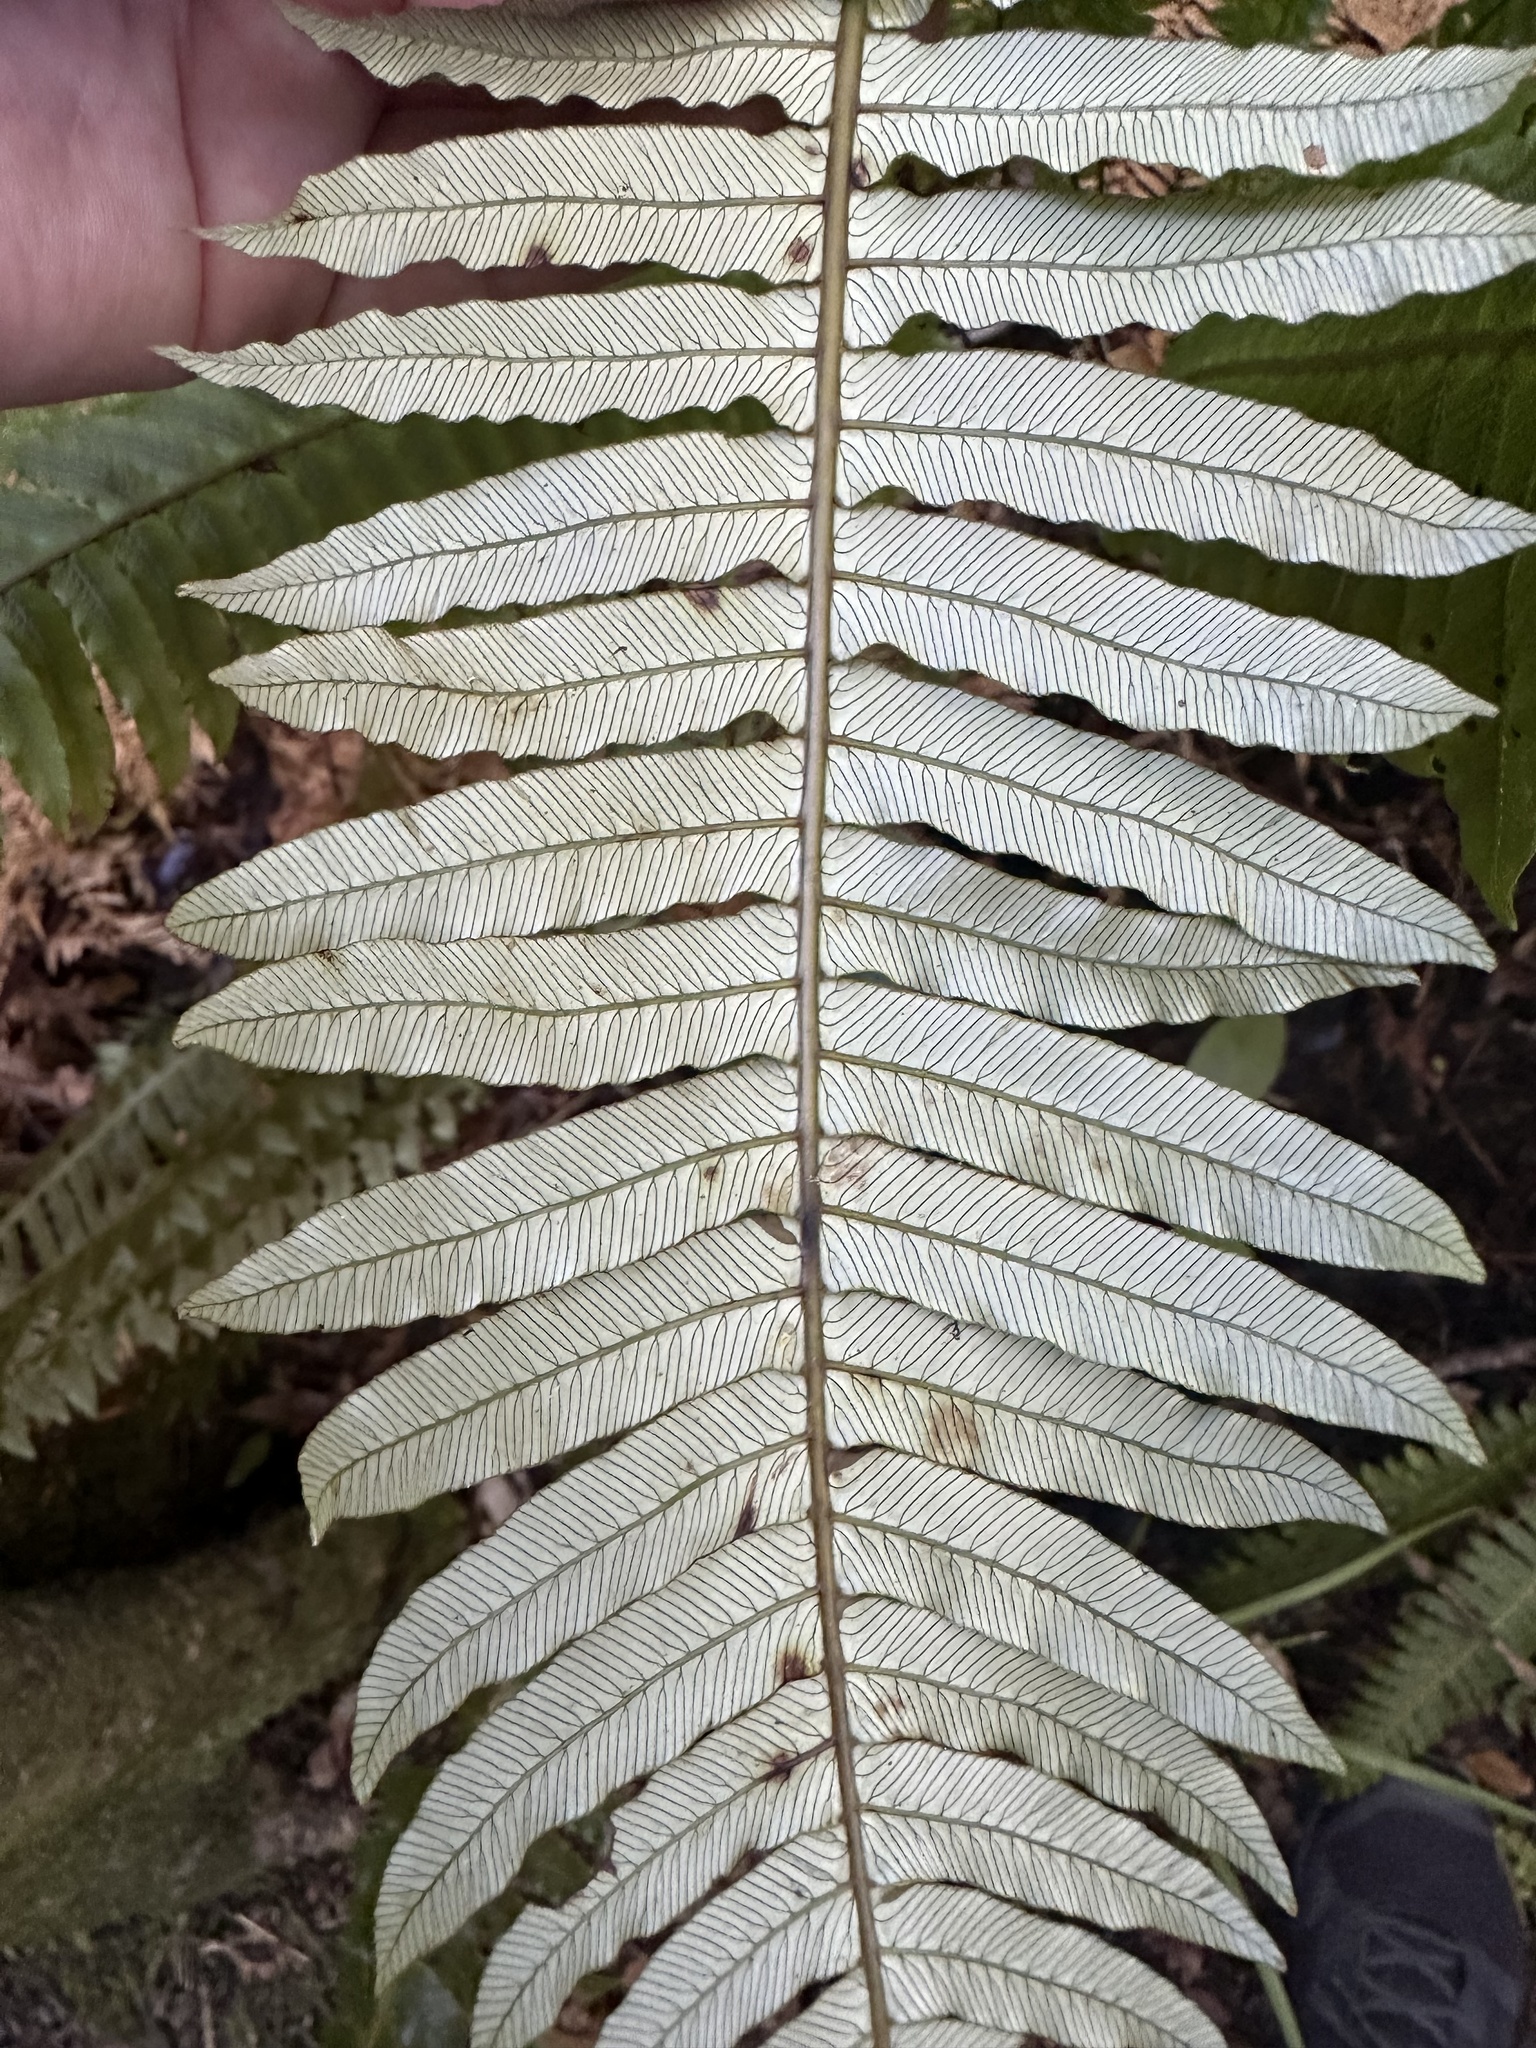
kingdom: Plantae
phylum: Tracheophyta
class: Polypodiopsida
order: Polypodiales
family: Blechnaceae
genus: Lomaria
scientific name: Lomaria discolor
